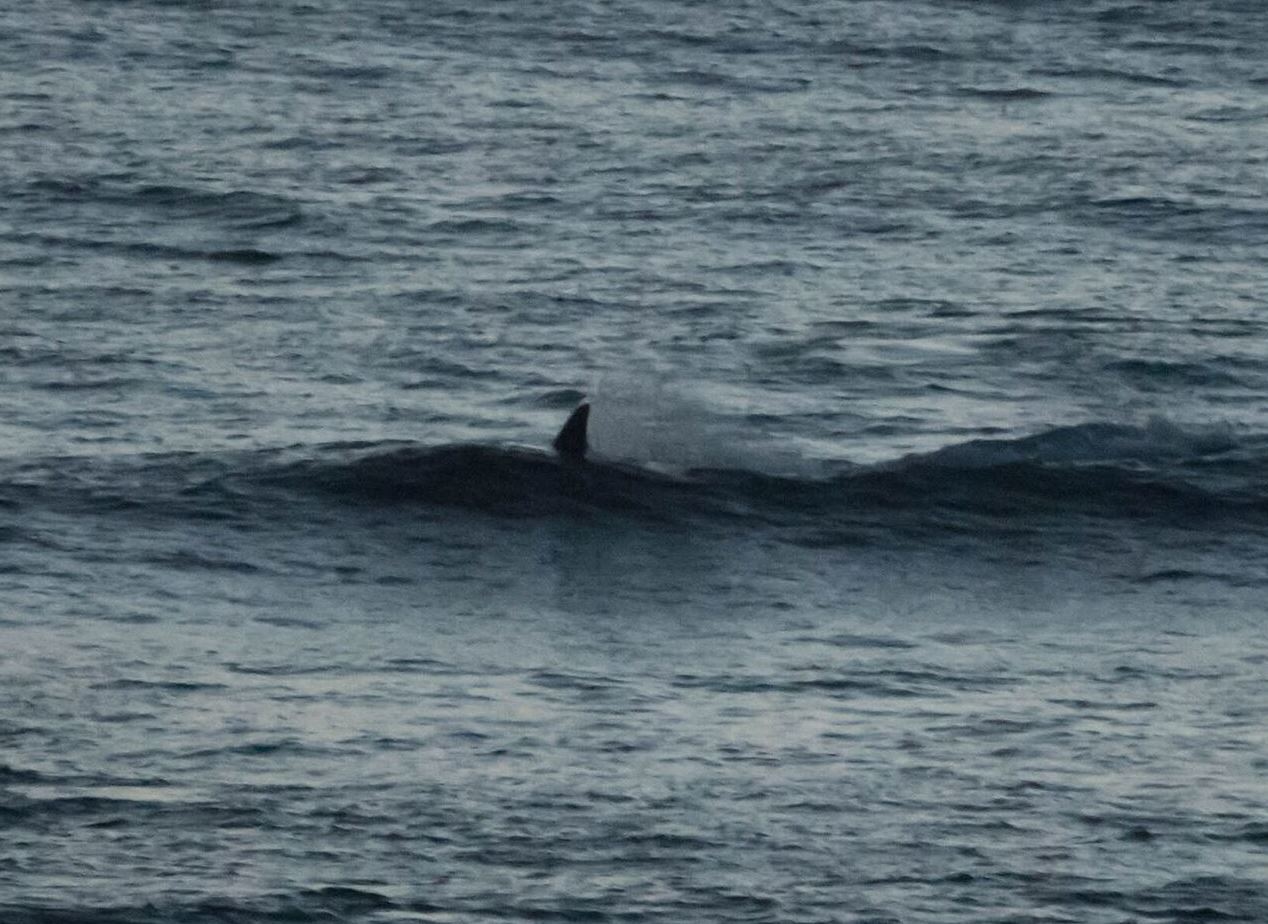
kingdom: Animalia
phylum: Chordata
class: Mammalia
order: Cetacea
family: Delphinidae
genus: Orcinus
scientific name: Orcinus orca
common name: Killer whale
